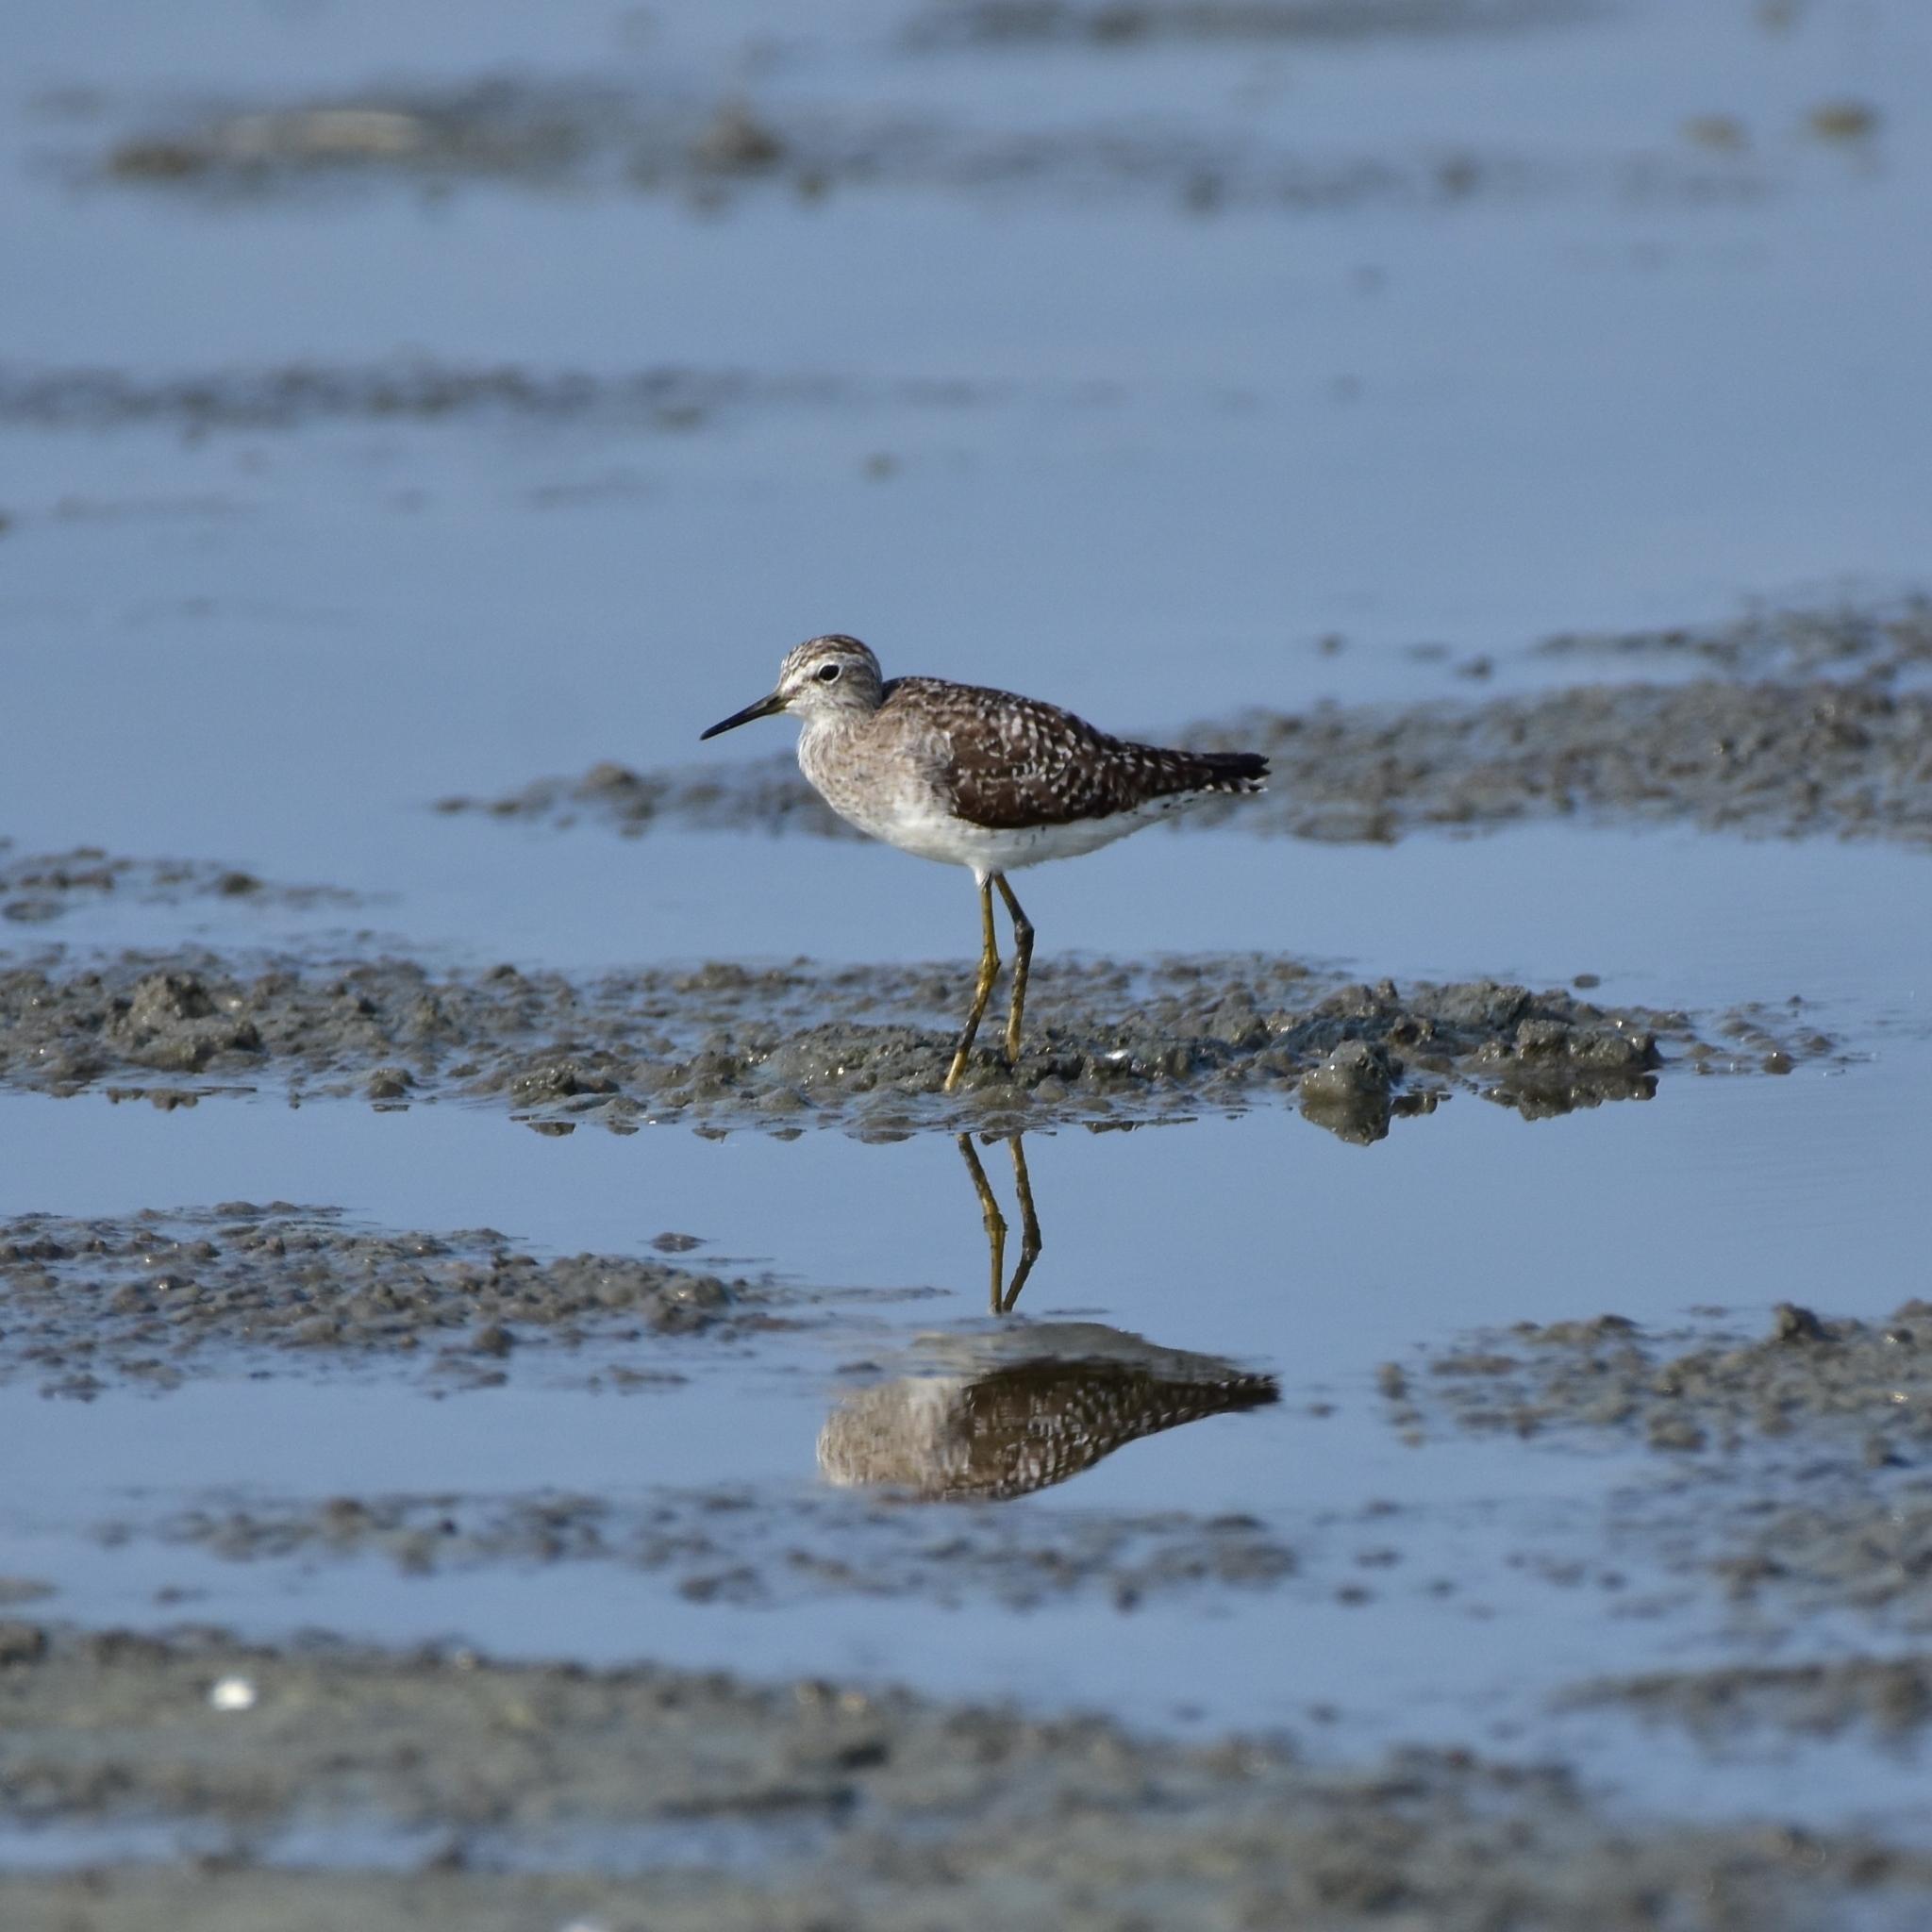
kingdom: Animalia
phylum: Chordata
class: Aves
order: Charadriiformes
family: Scolopacidae
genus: Tringa
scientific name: Tringa glareola
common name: Wood sandpiper
